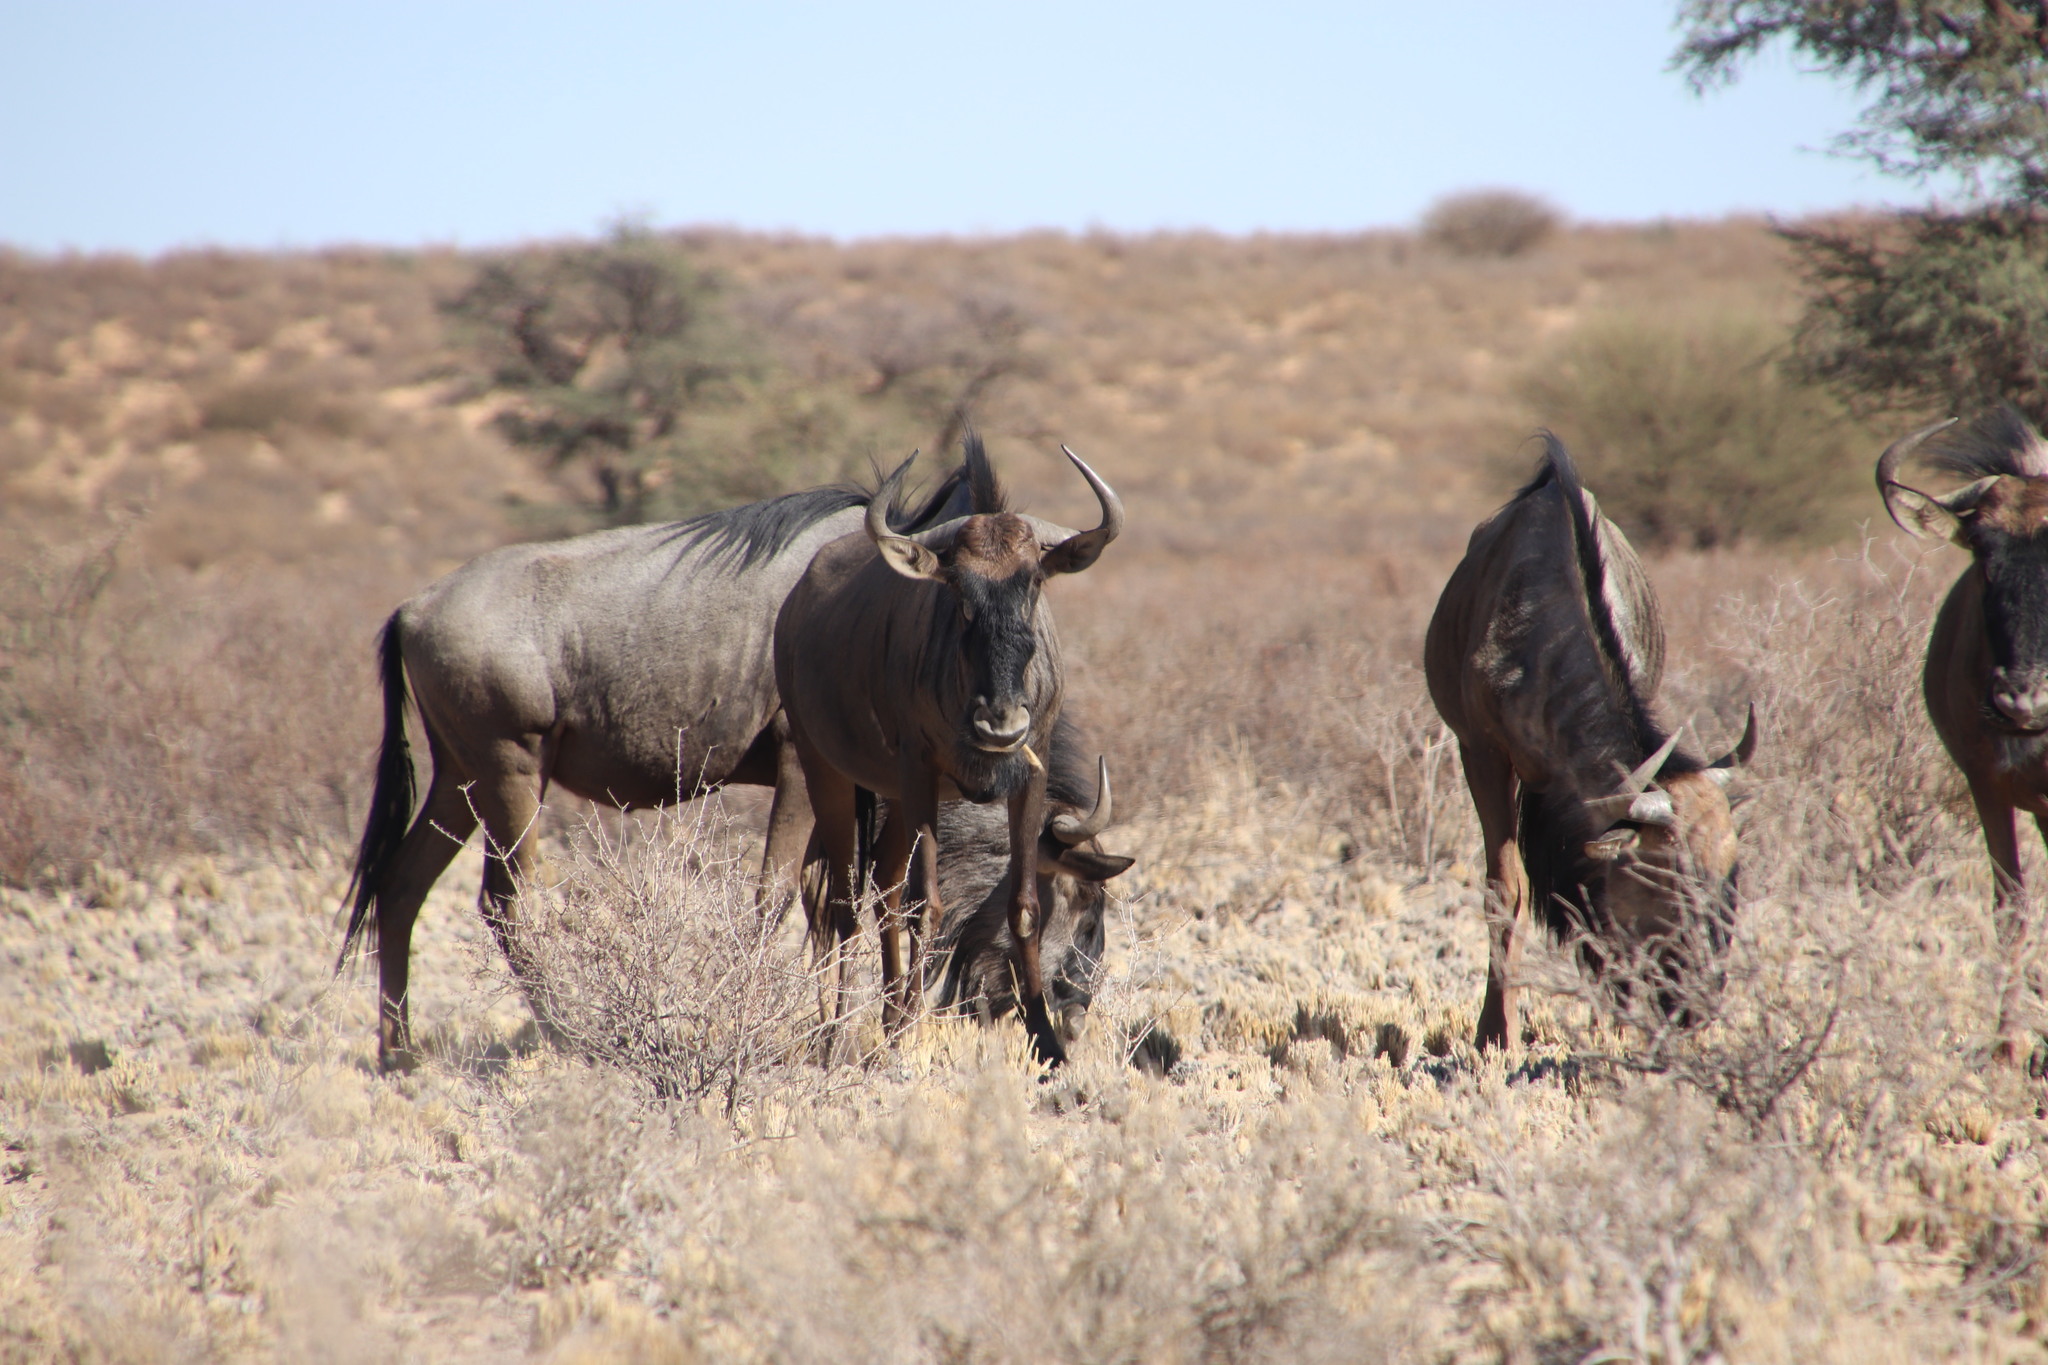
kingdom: Animalia
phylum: Chordata
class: Mammalia
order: Artiodactyla
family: Bovidae
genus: Connochaetes
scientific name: Connochaetes taurinus
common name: Blue wildebeest
